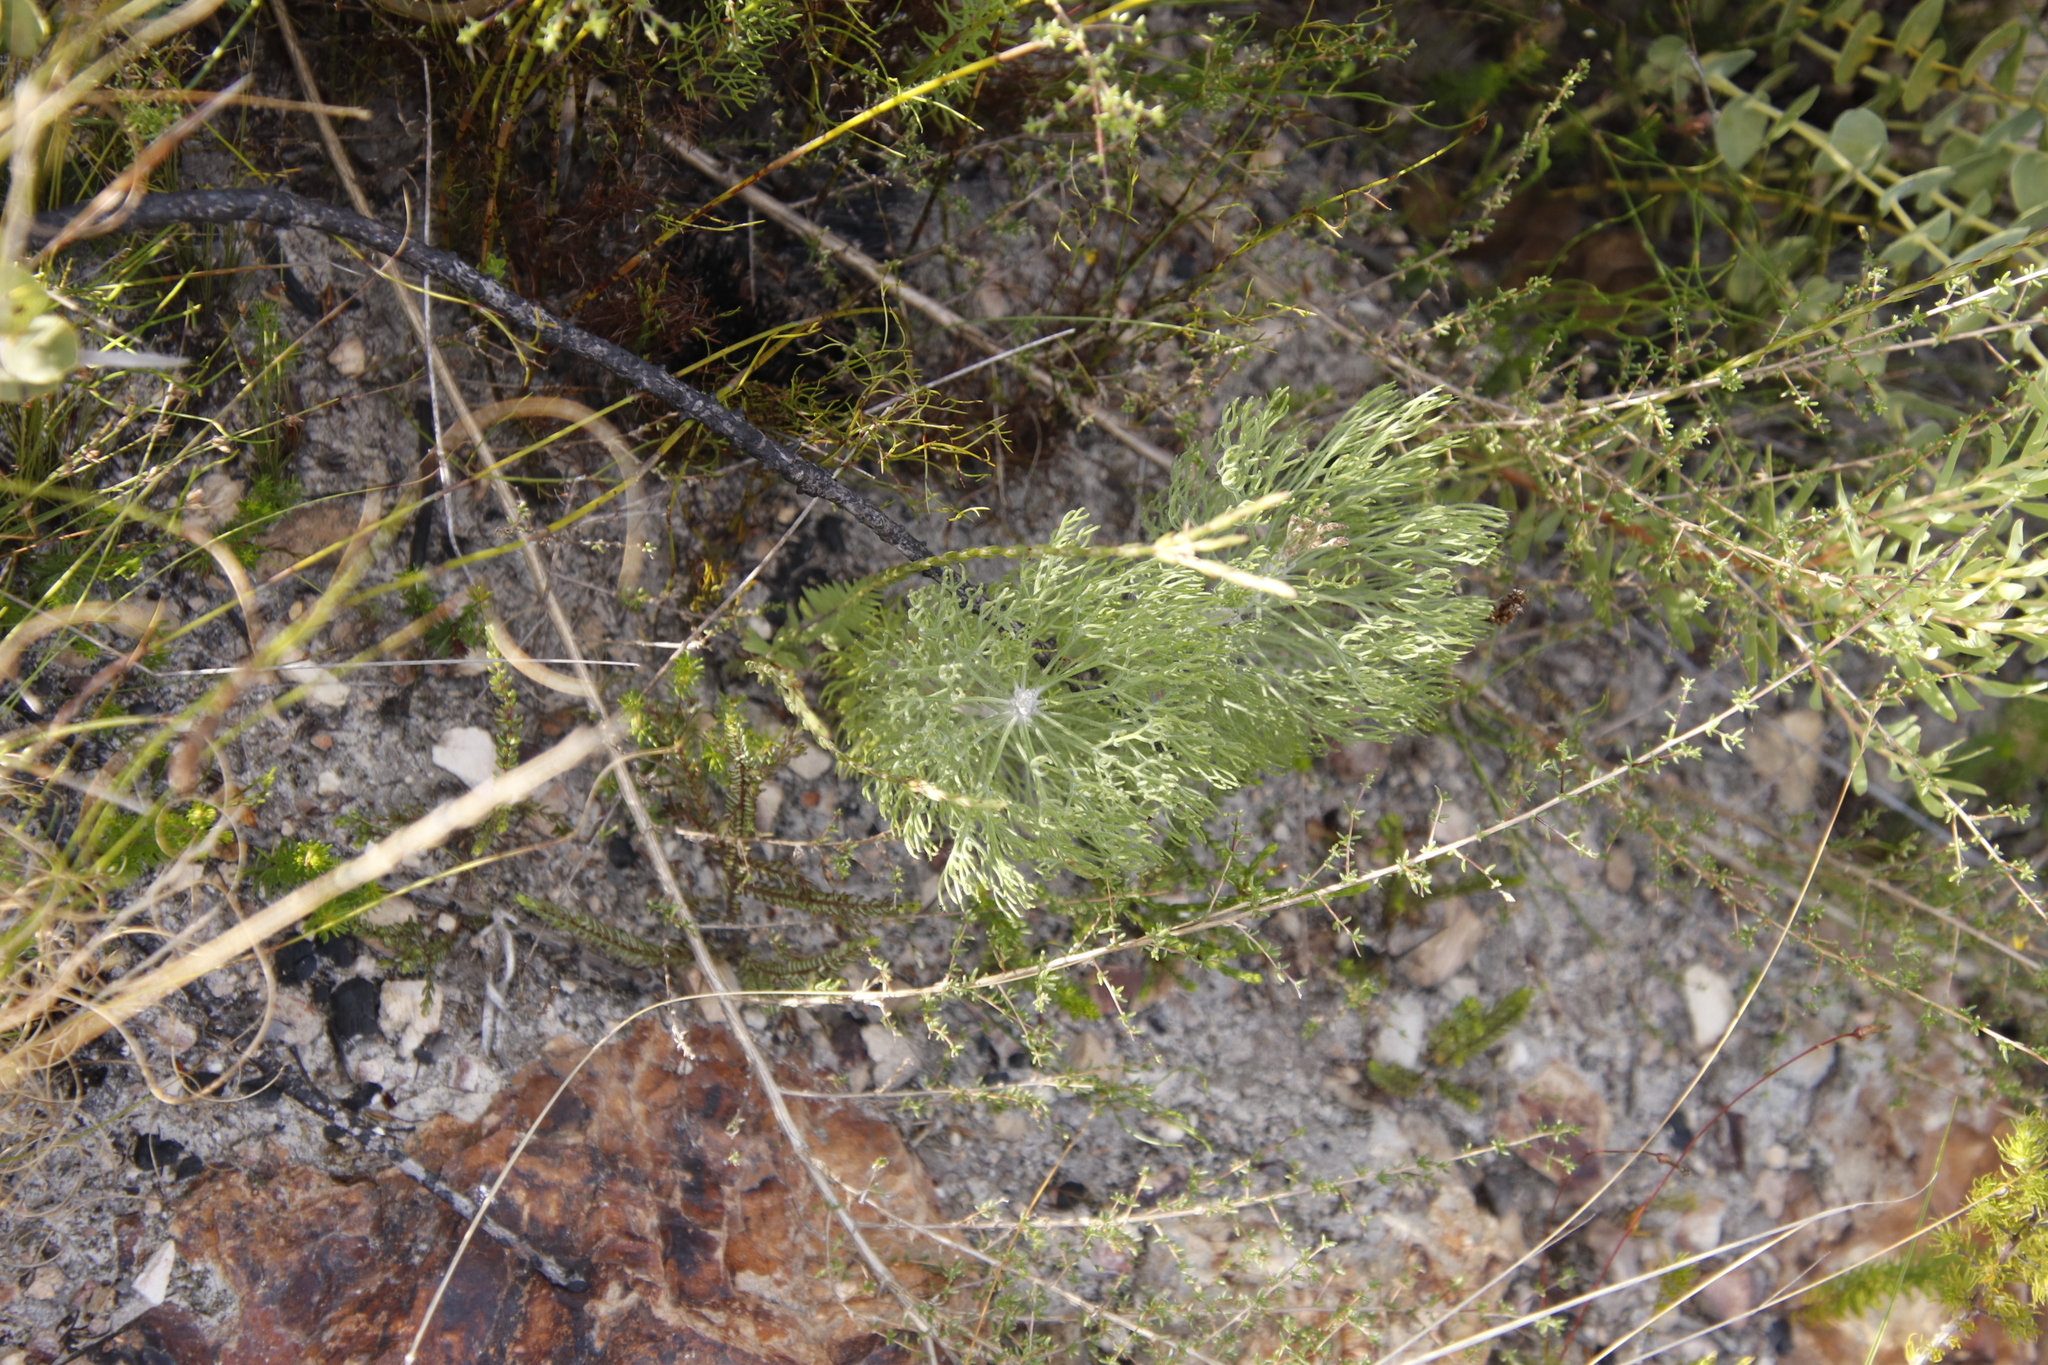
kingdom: Plantae
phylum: Tracheophyta
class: Magnoliopsida
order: Proteales
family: Proteaceae
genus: Paranomus
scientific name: Paranomus dispersus
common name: Long-head sceptre
